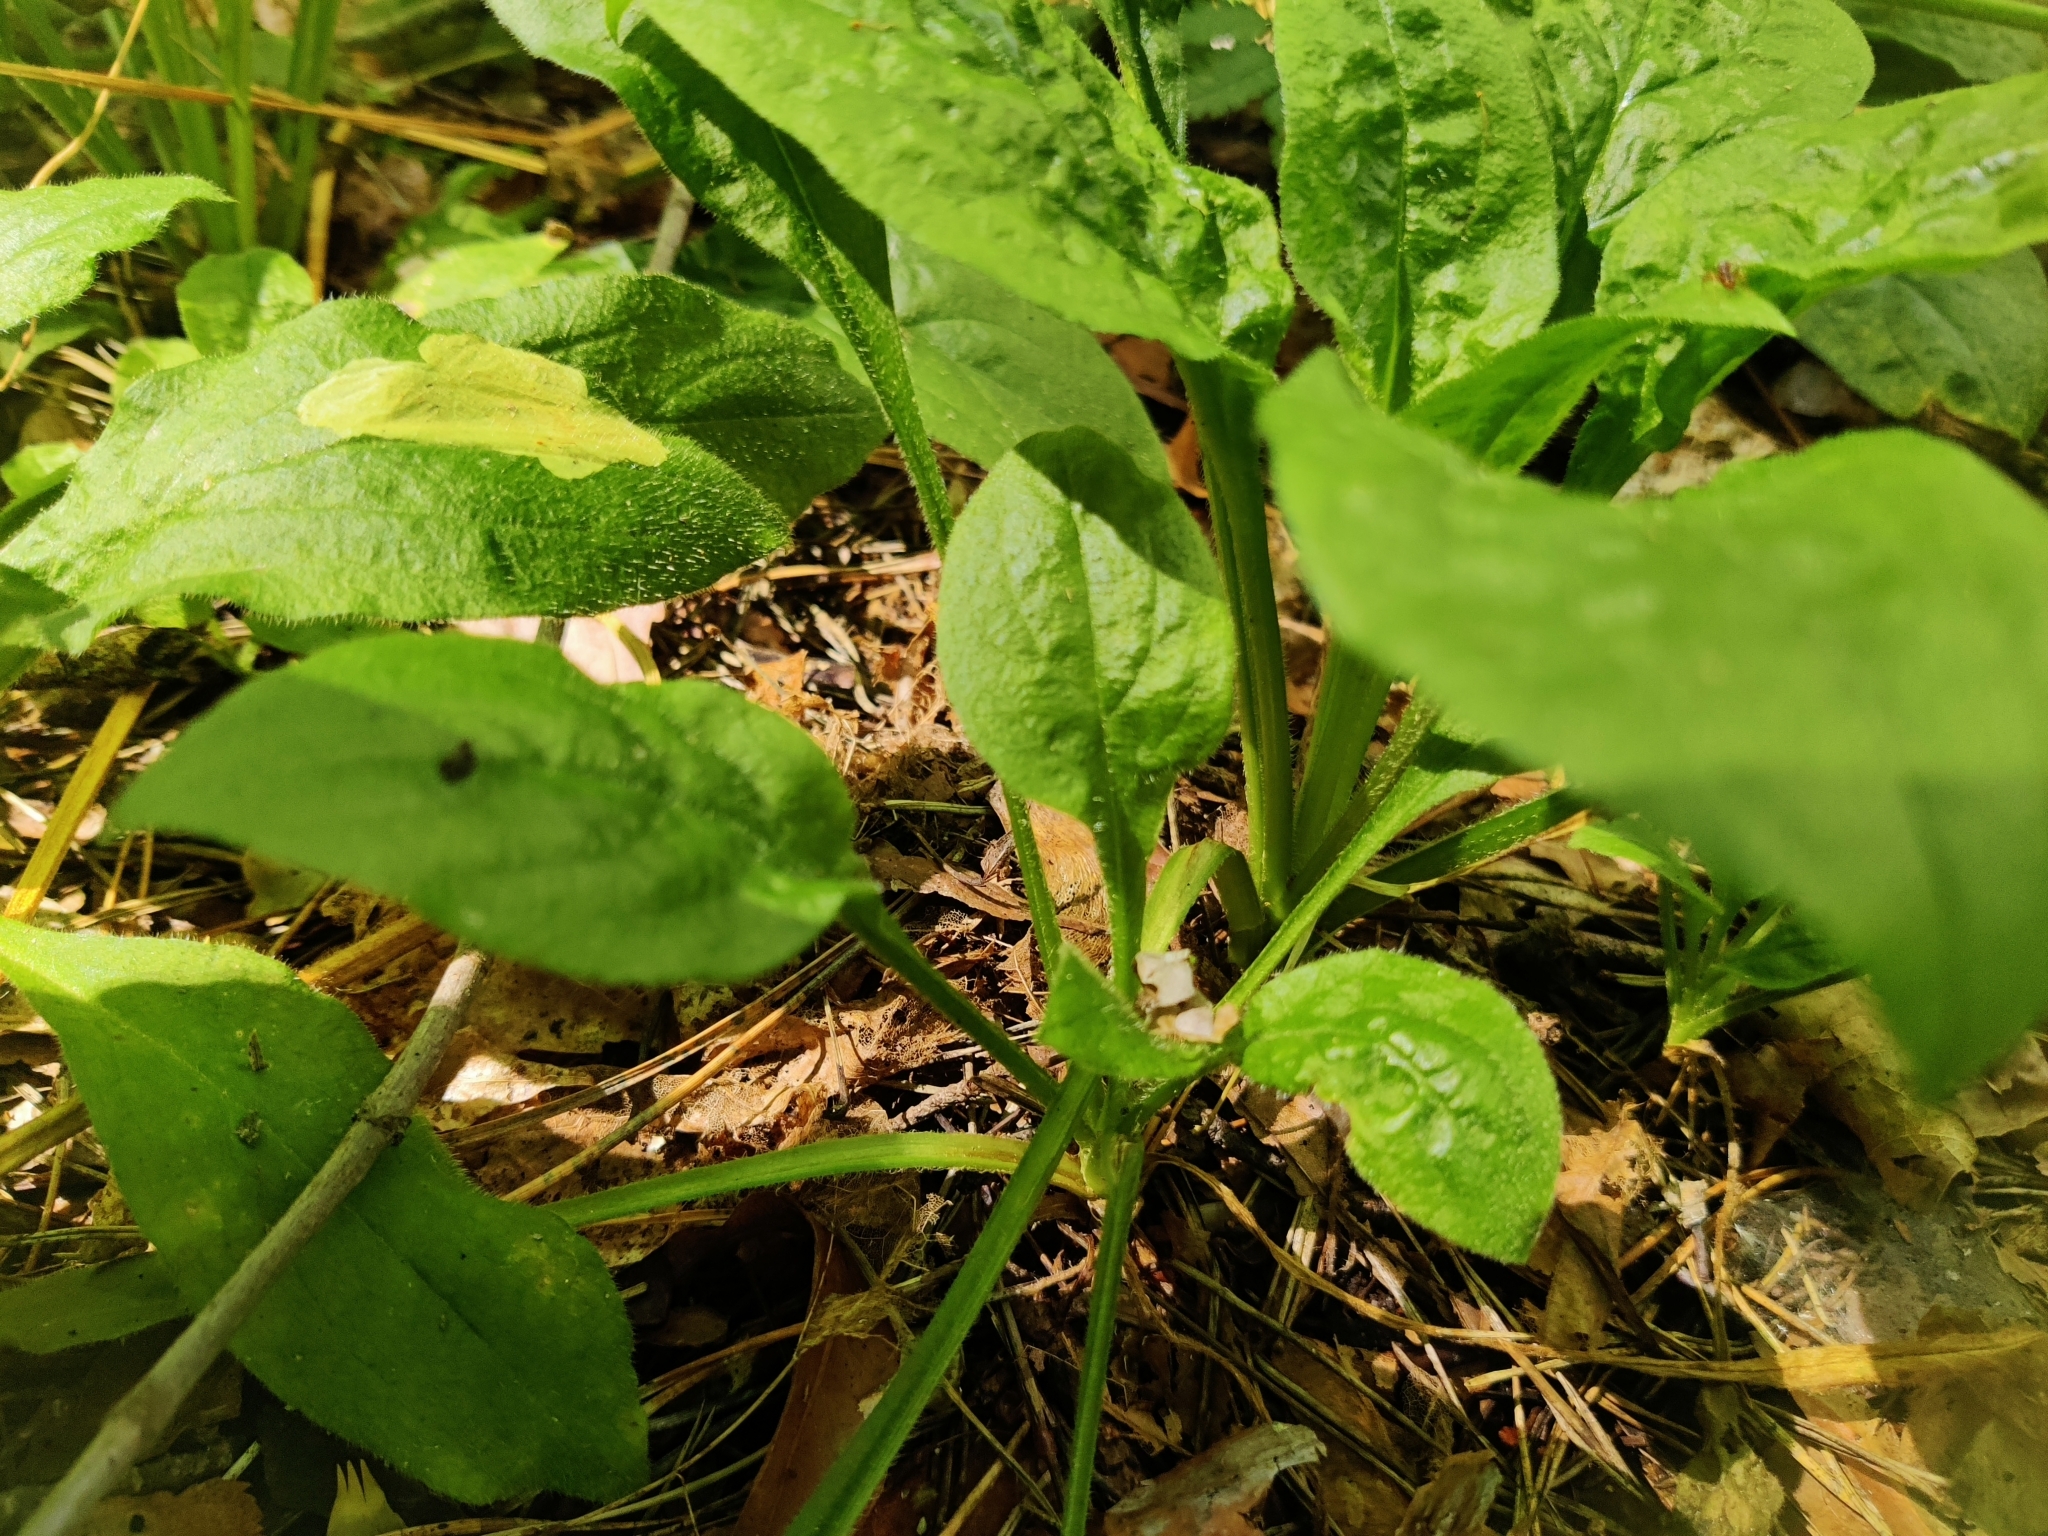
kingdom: Plantae
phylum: Tracheophyta
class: Magnoliopsida
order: Asterales
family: Asteraceae
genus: Solidago
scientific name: Solidago virgaurea
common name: Goldenrod
